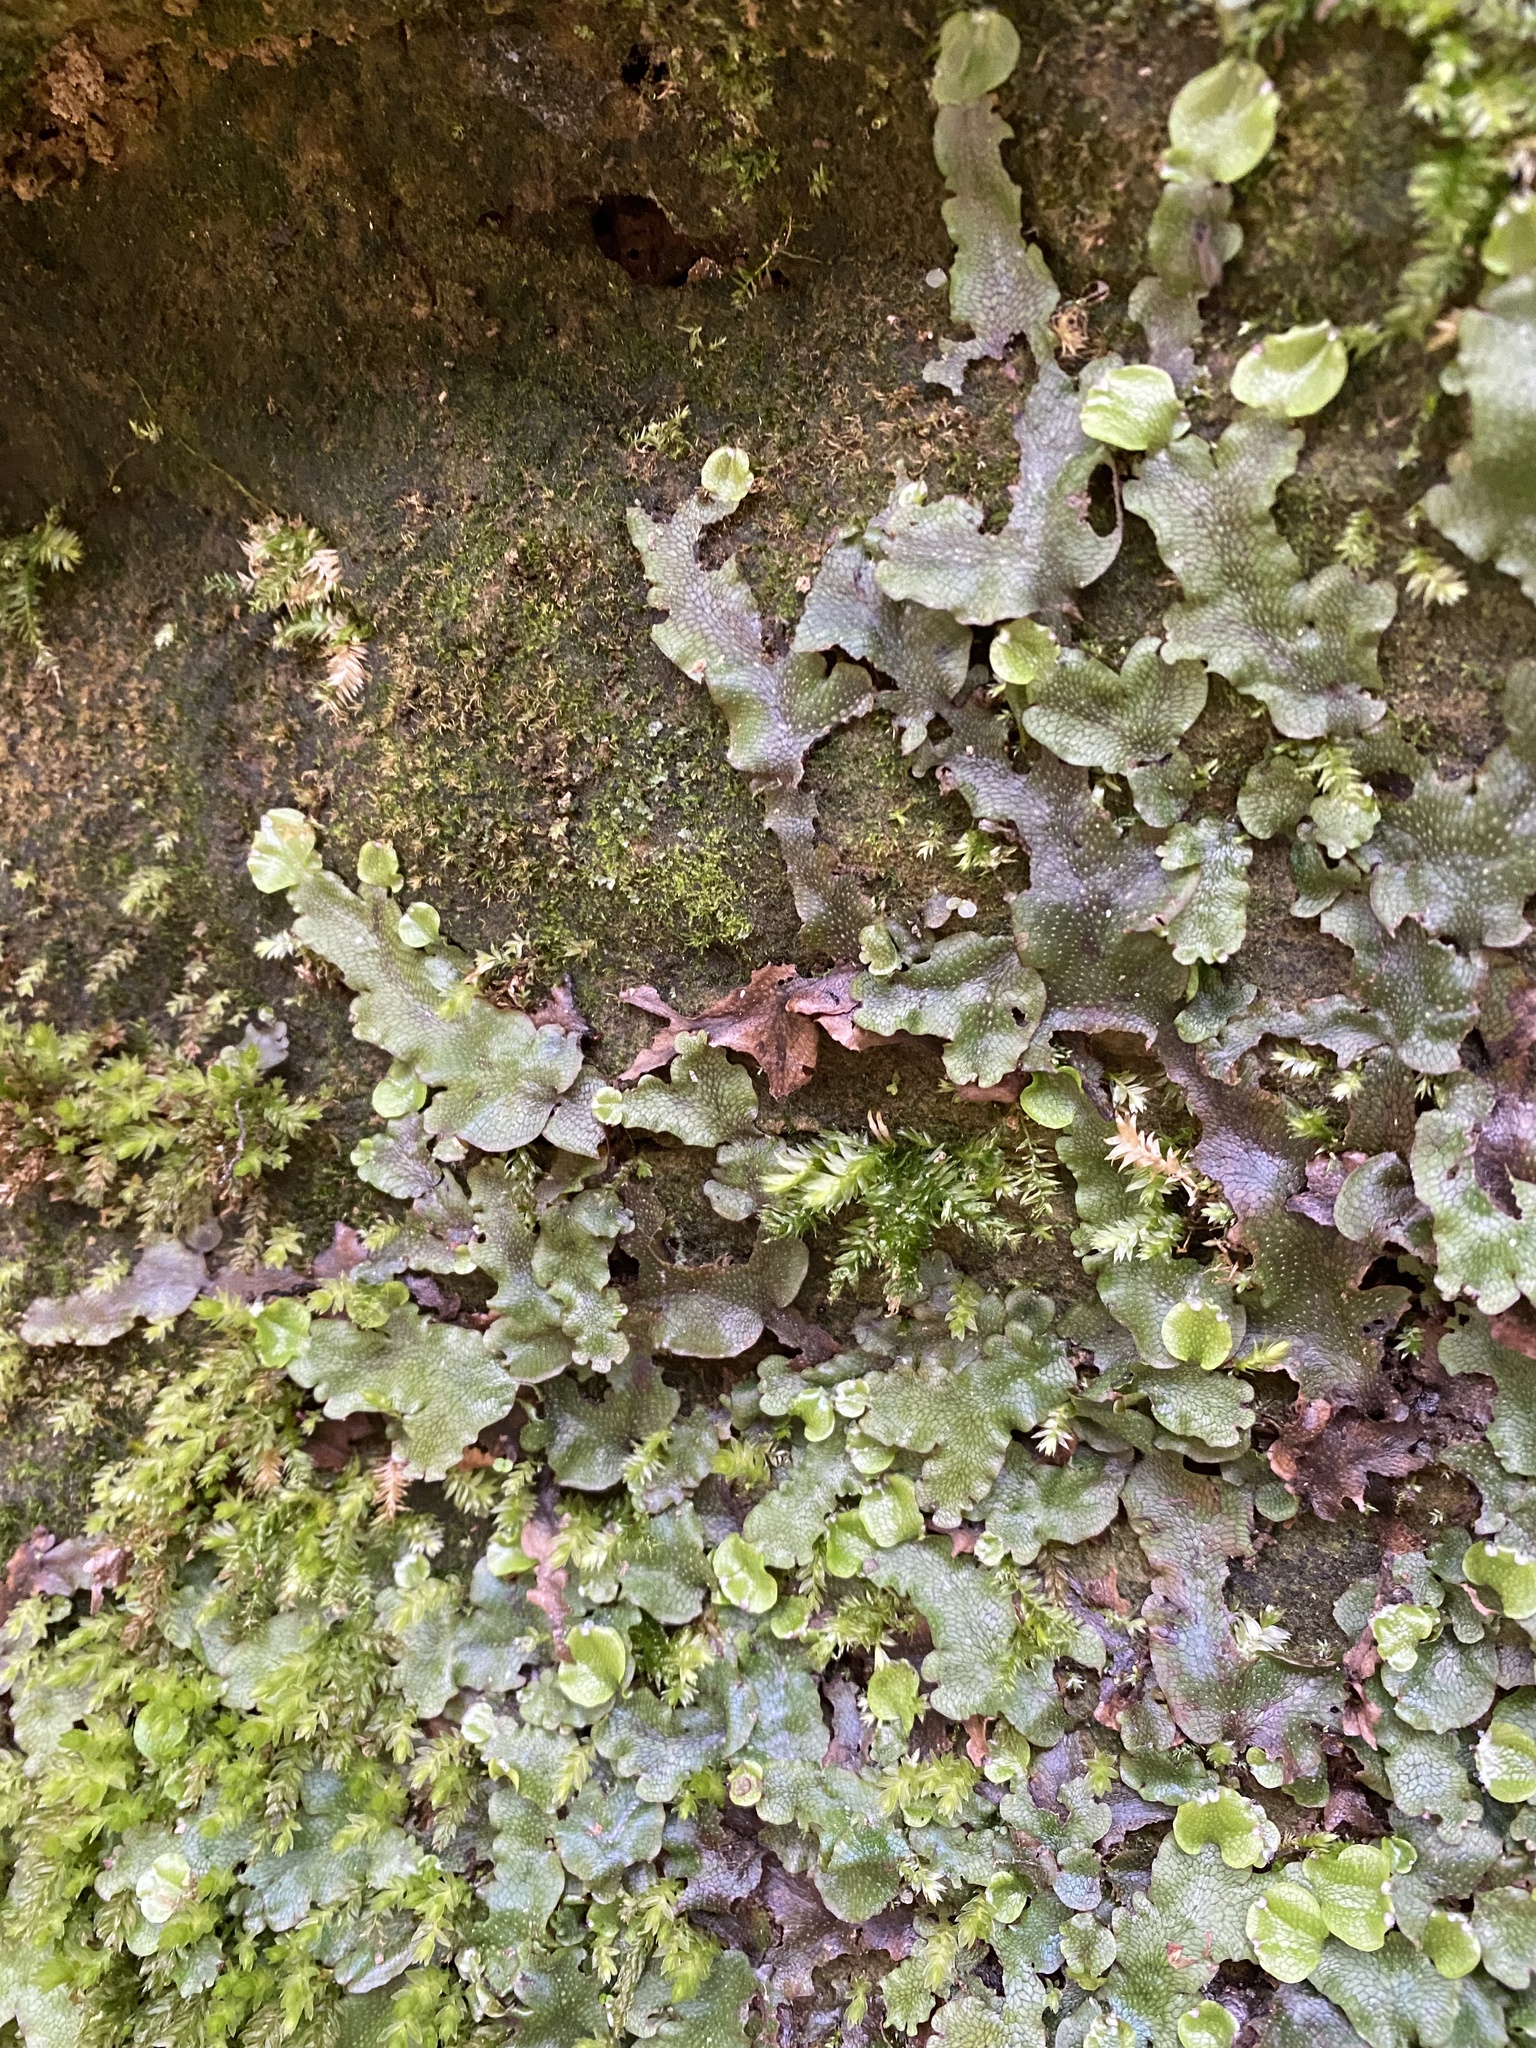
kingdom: Plantae
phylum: Marchantiophyta
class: Marchantiopsida
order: Marchantiales
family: Conocephalaceae
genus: Conocephalum
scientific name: Conocephalum conicum
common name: Great scented liverwort
